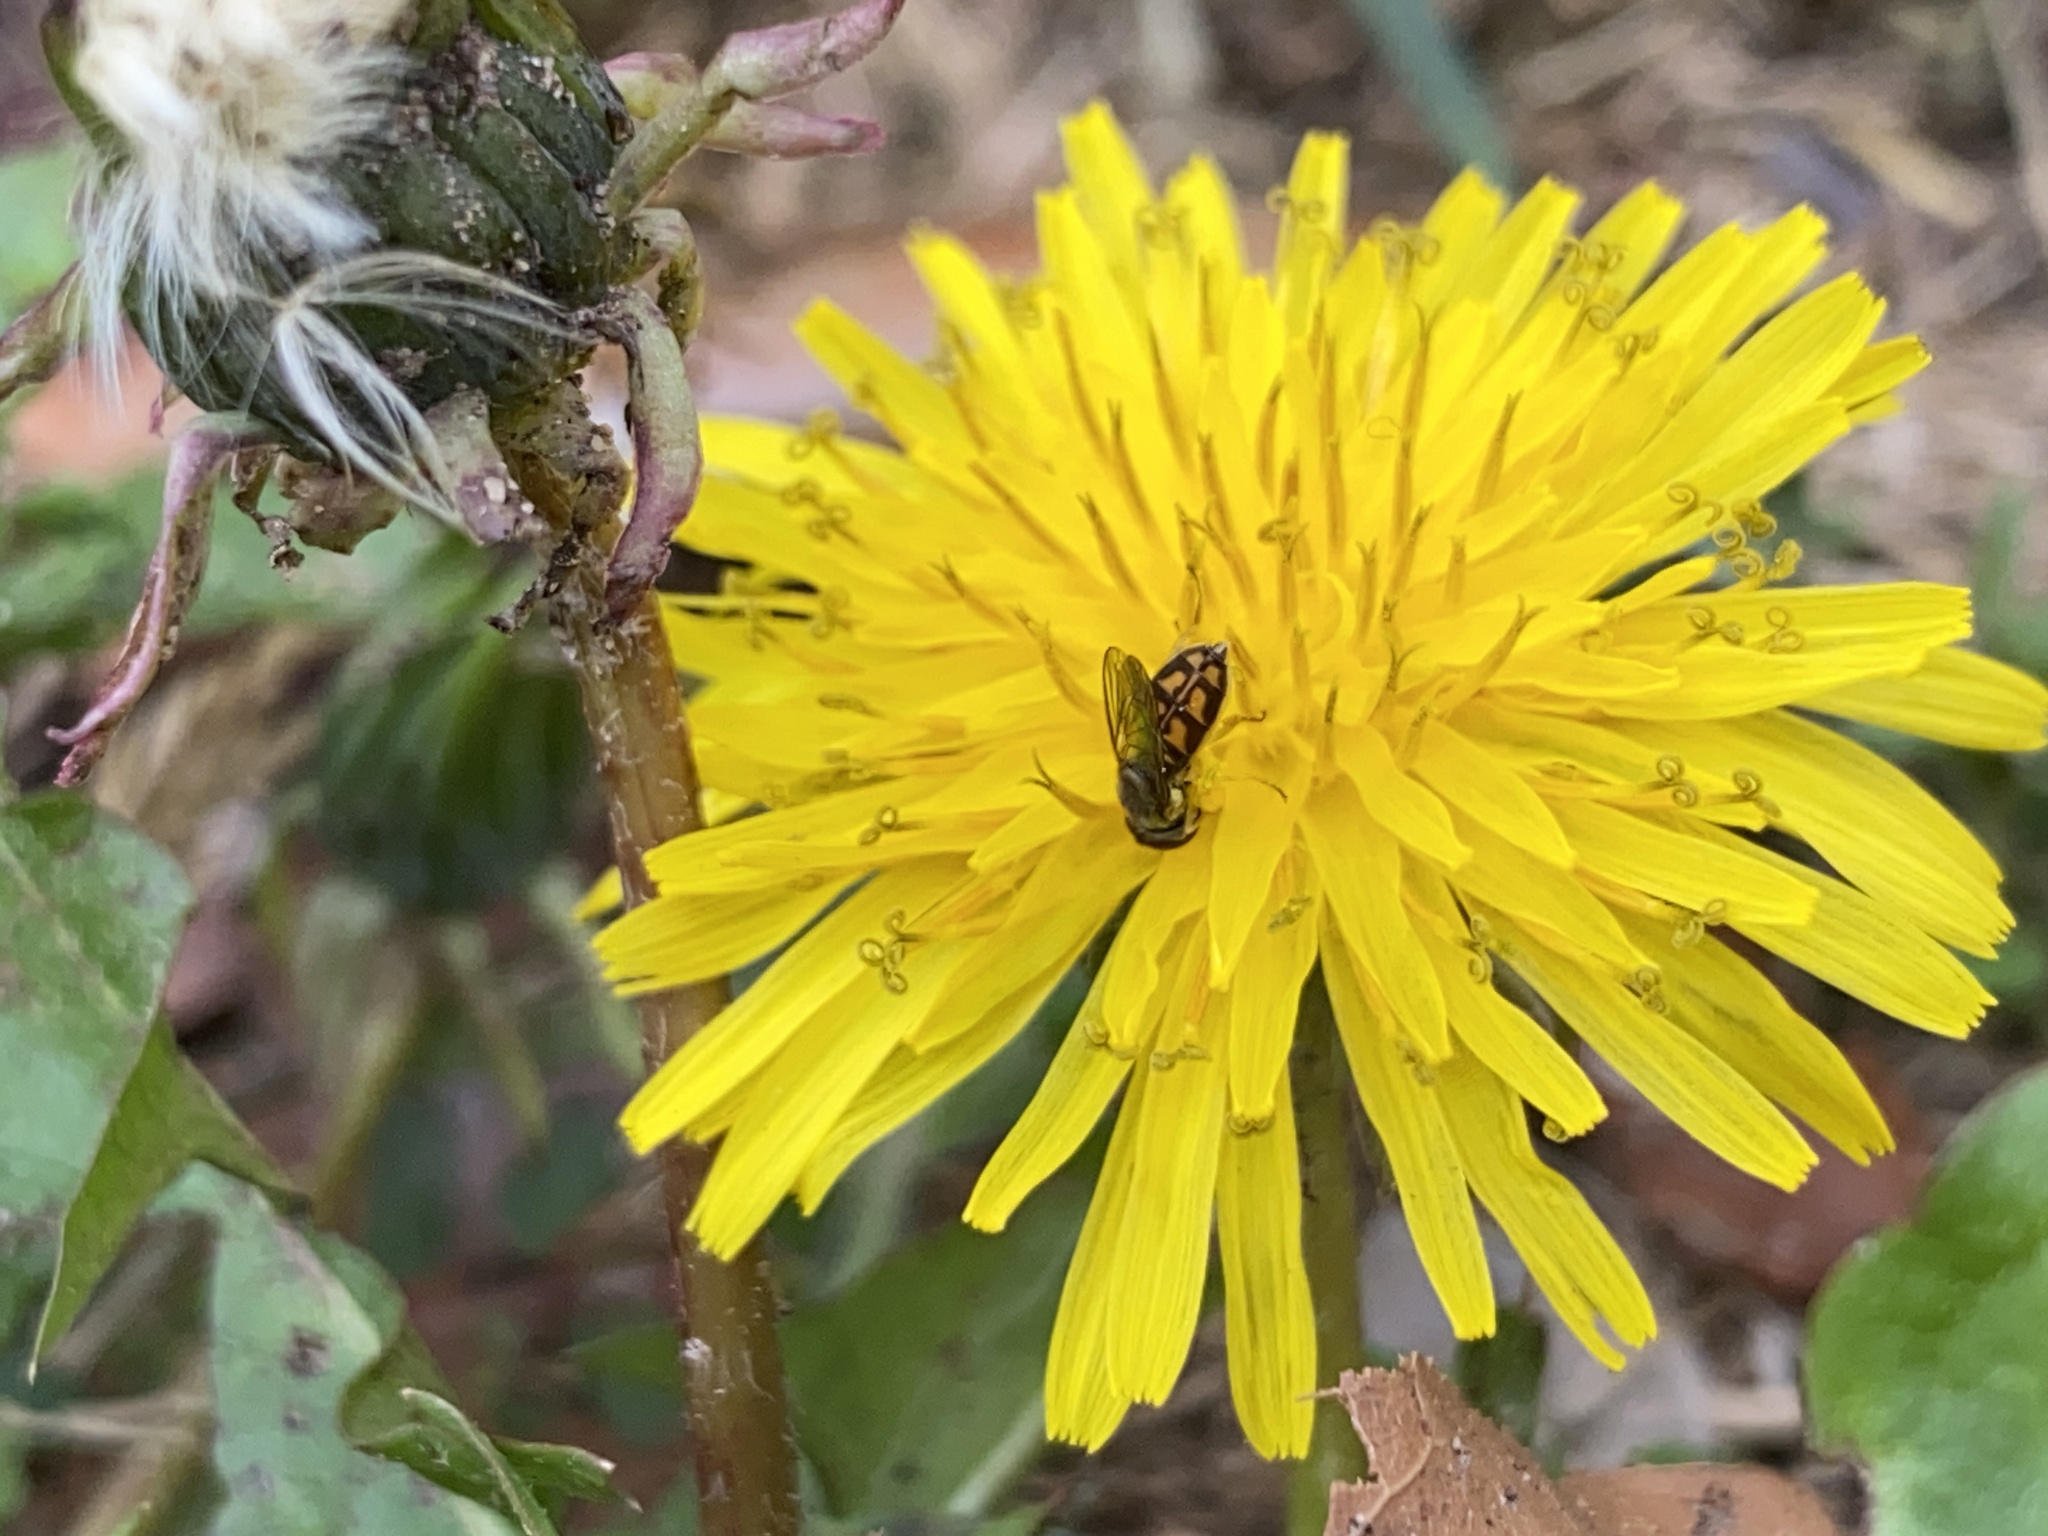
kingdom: Animalia
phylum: Arthropoda
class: Insecta
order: Diptera
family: Syrphidae
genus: Toxomerus
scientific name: Toxomerus marginatus
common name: Syrphid fly
